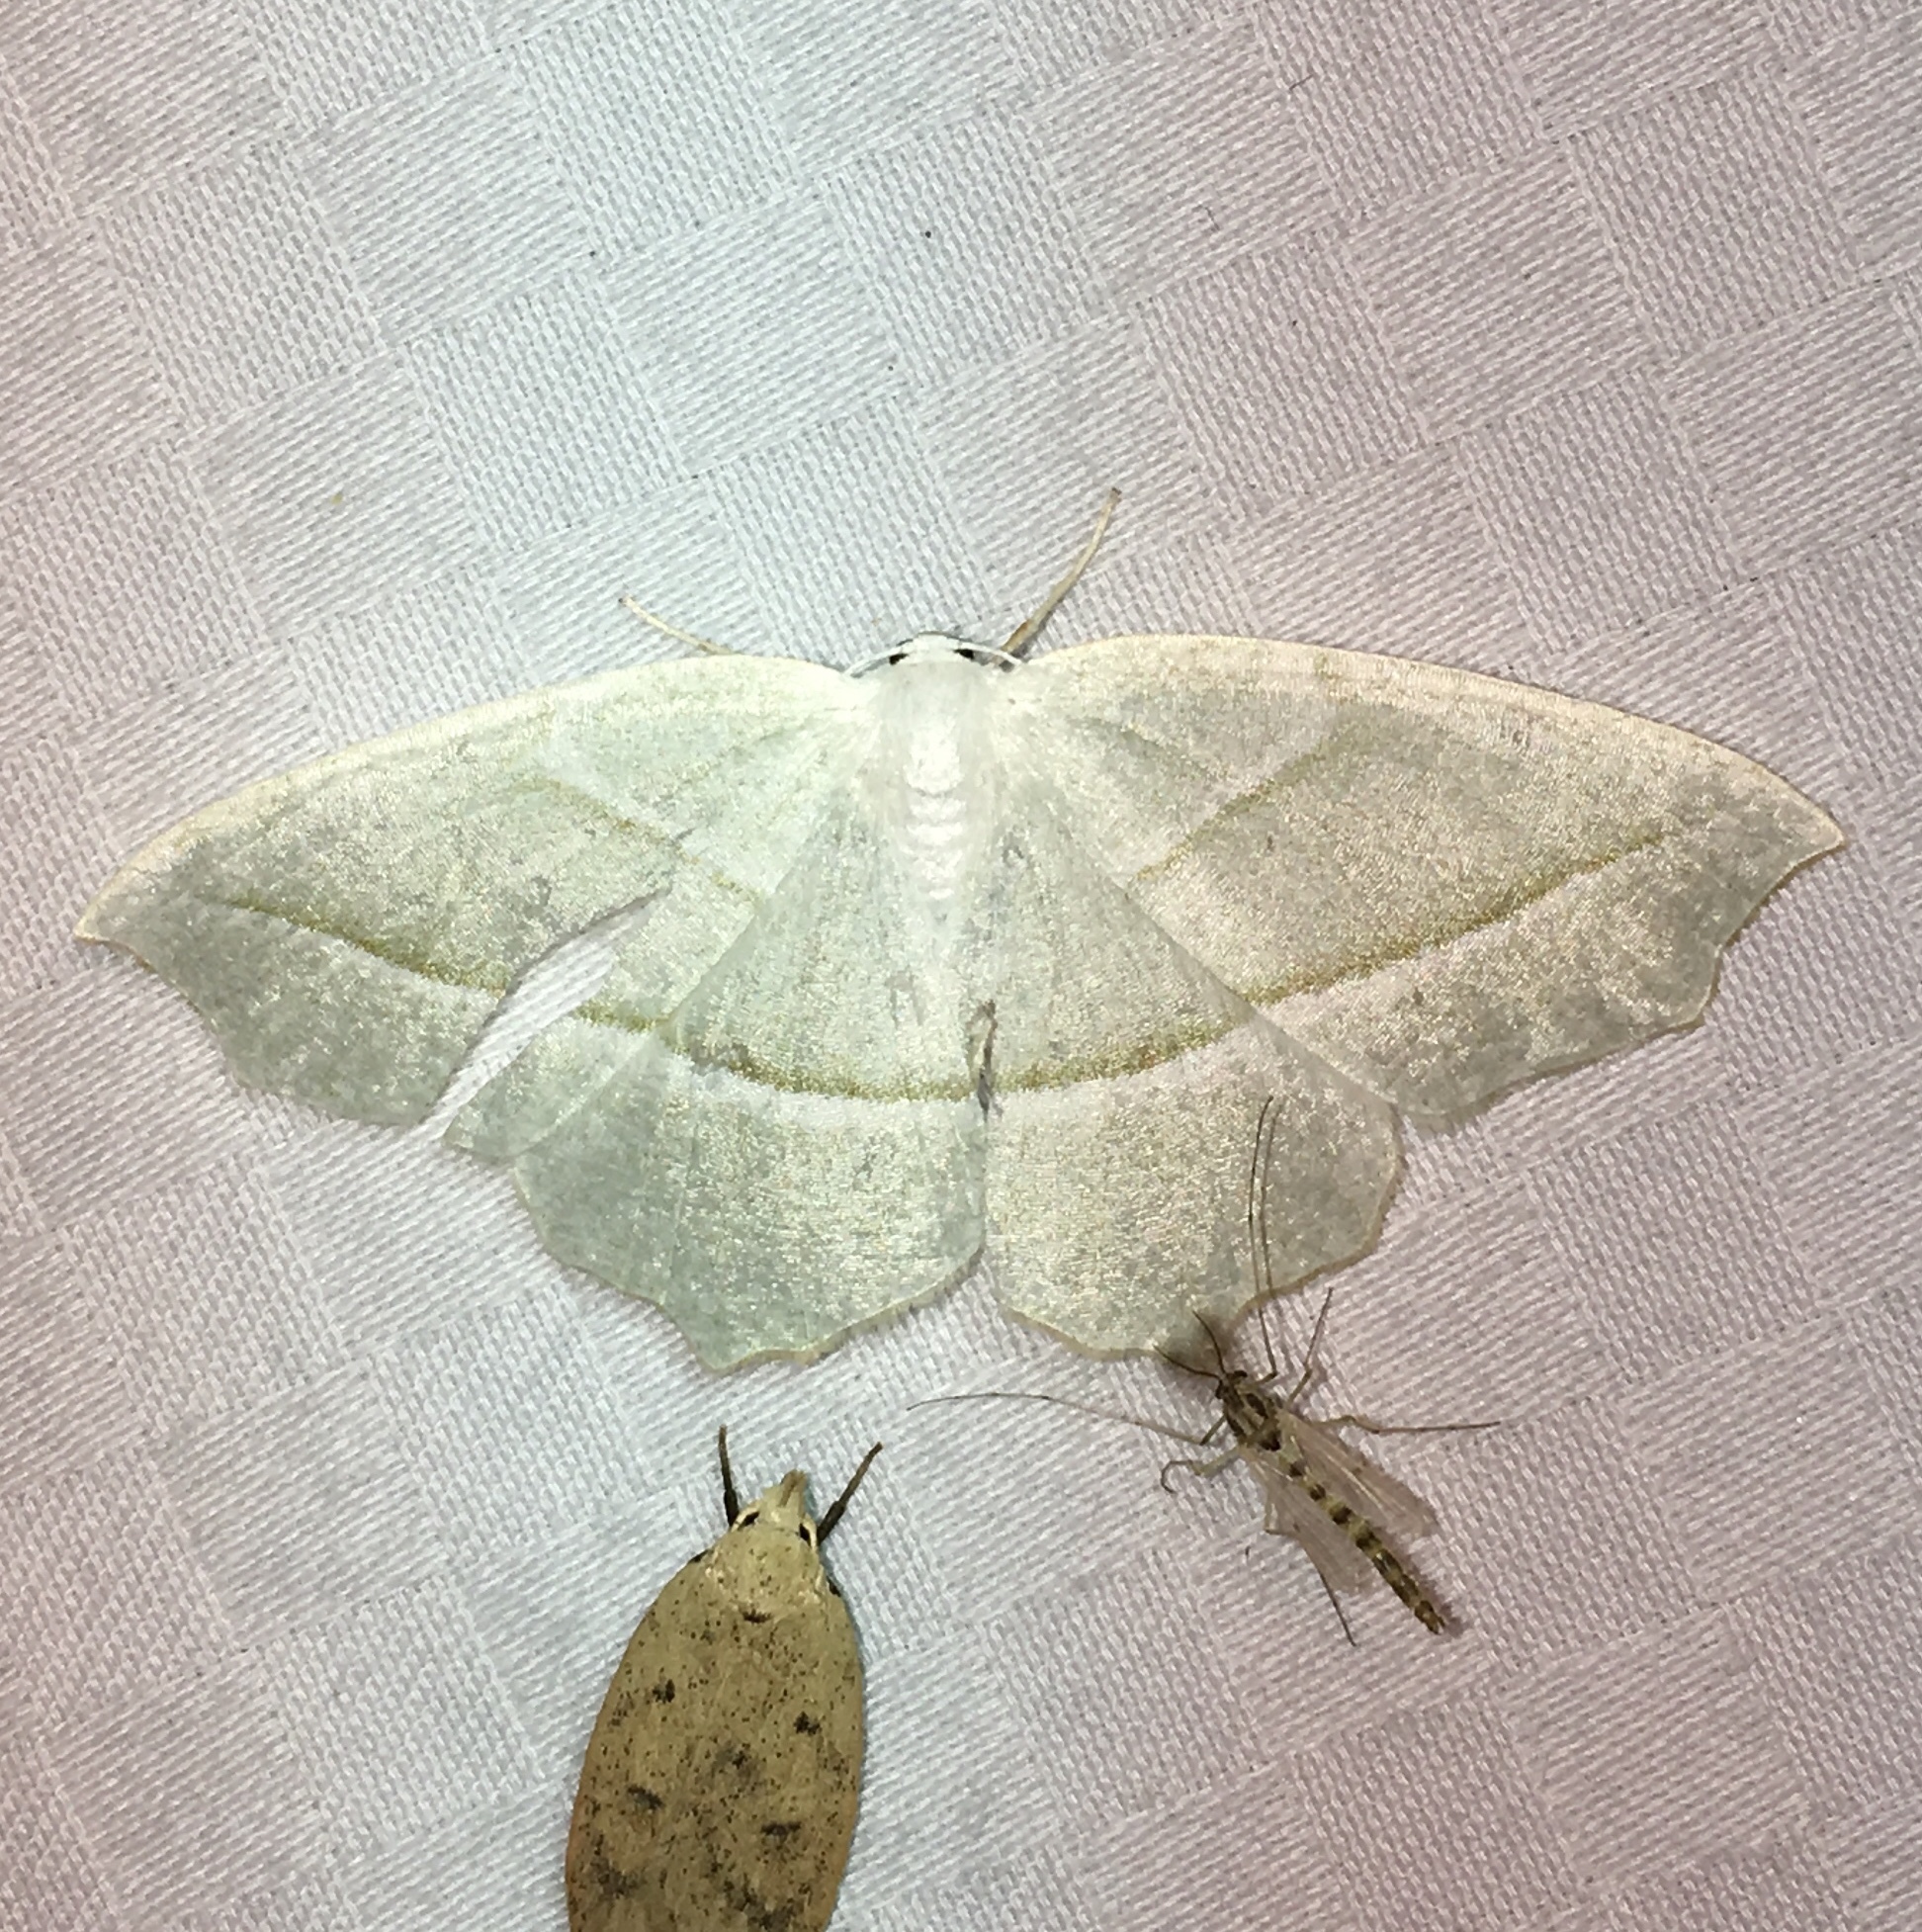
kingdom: Animalia
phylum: Arthropoda
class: Insecta
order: Lepidoptera
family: Geometridae
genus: Campaea
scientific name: Campaea perlata
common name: Fringed looper
